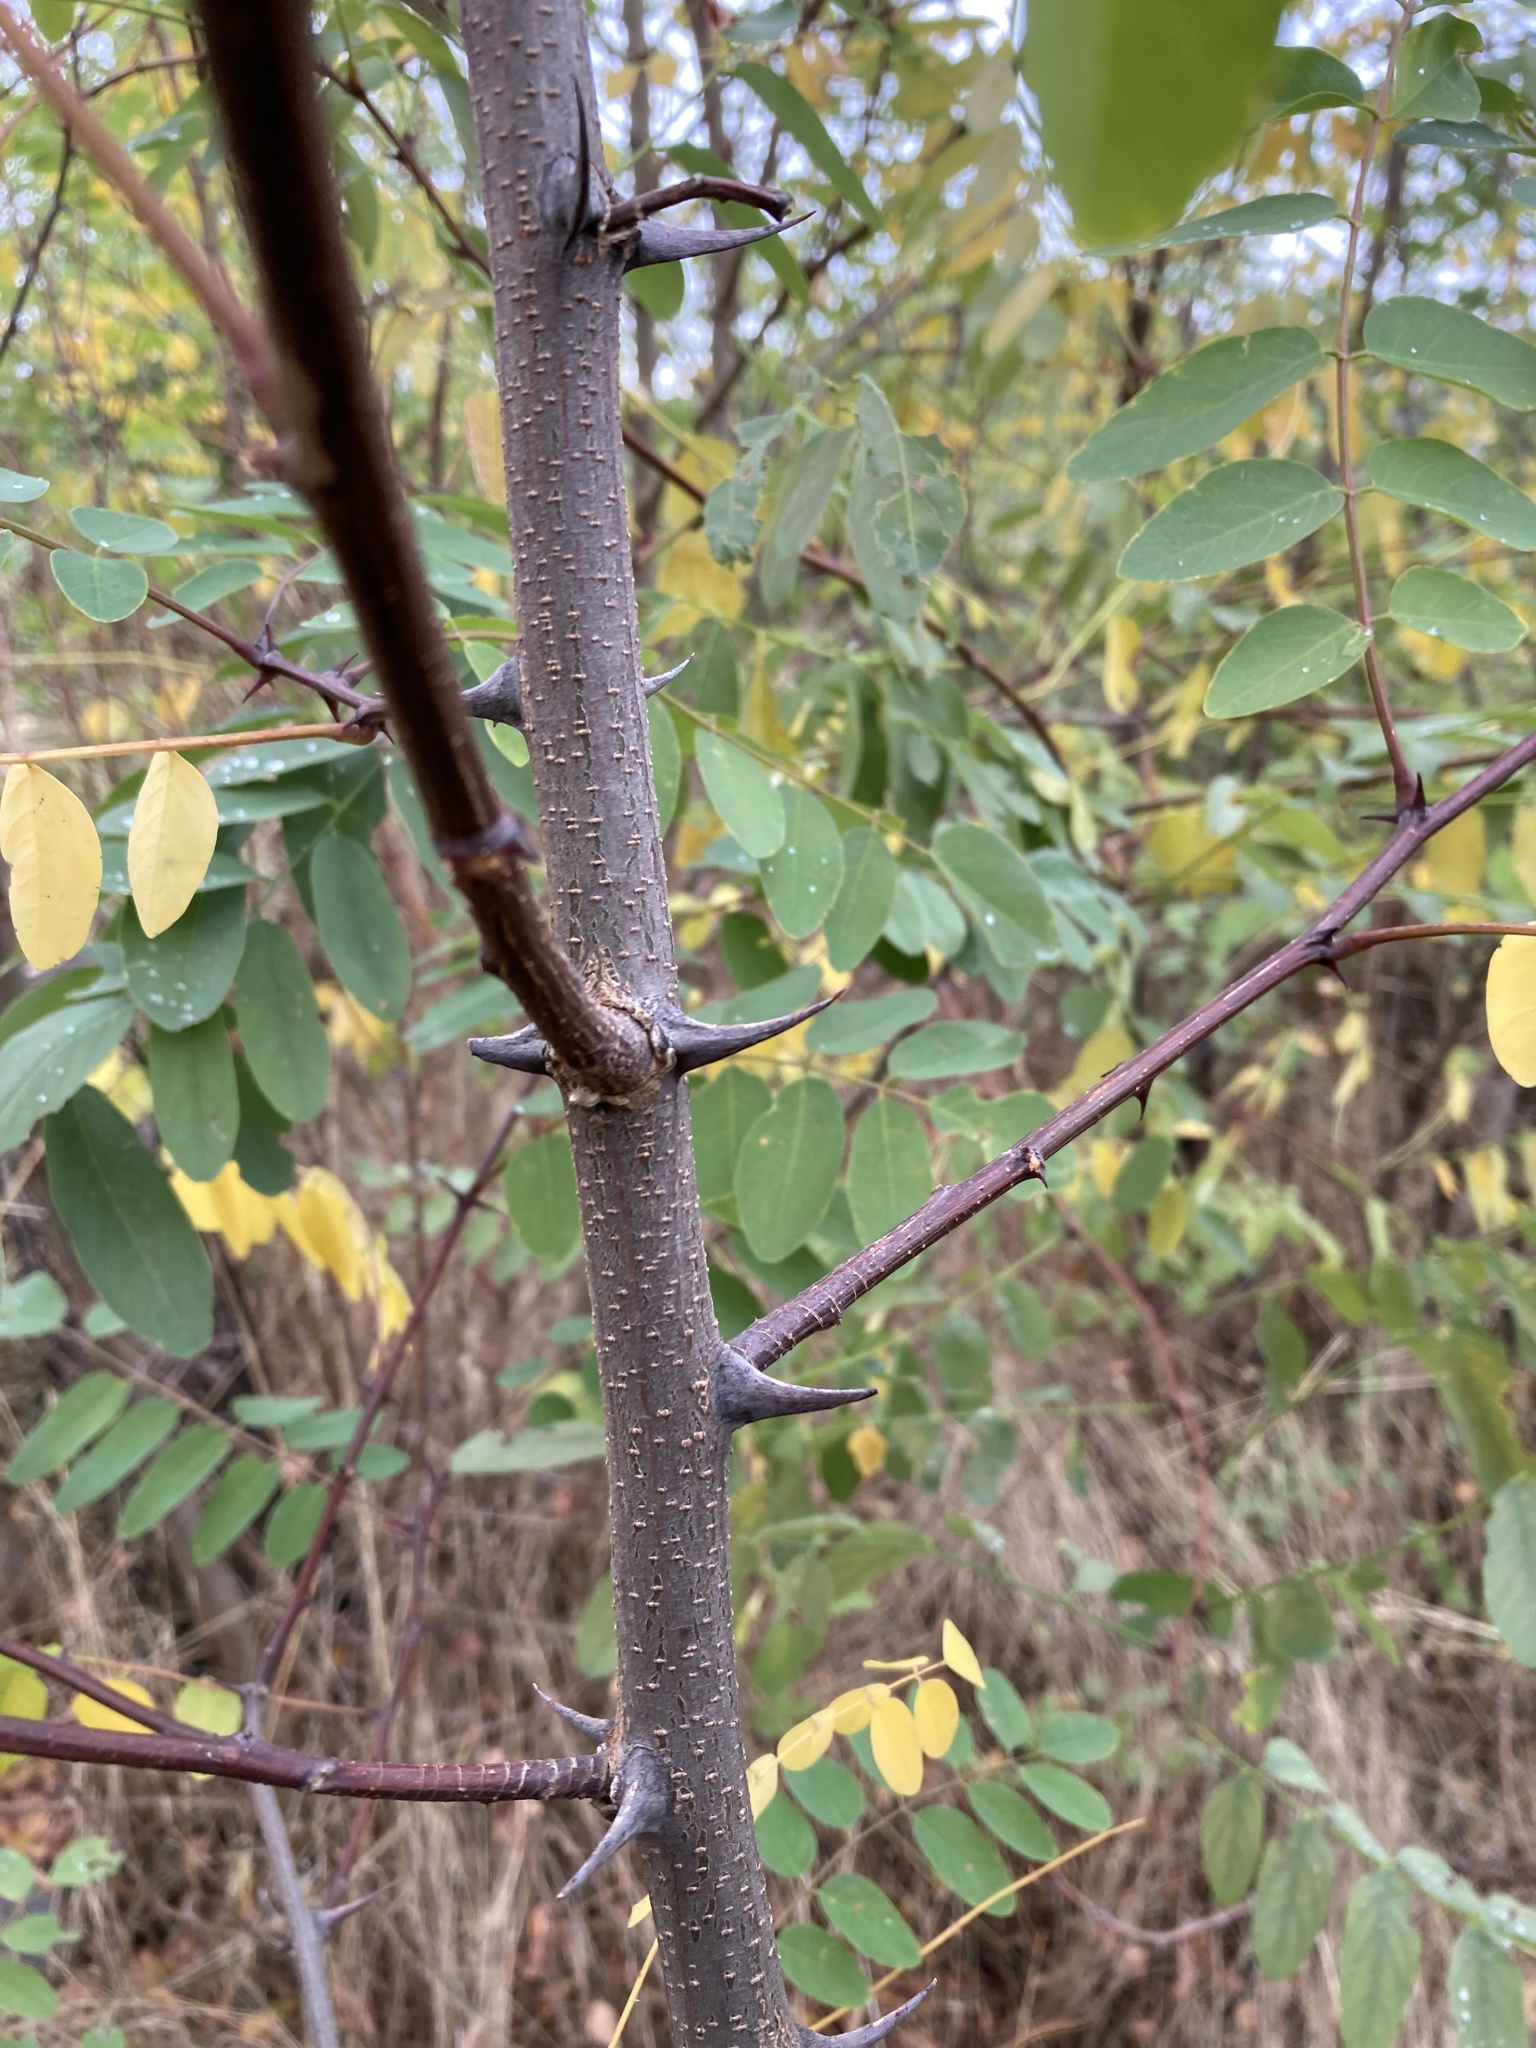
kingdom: Plantae
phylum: Tracheophyta
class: Magnoliopsida
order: Fabales
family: Fabaceae
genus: Robinia
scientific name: Robinia pseudoacacia
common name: Black locust
